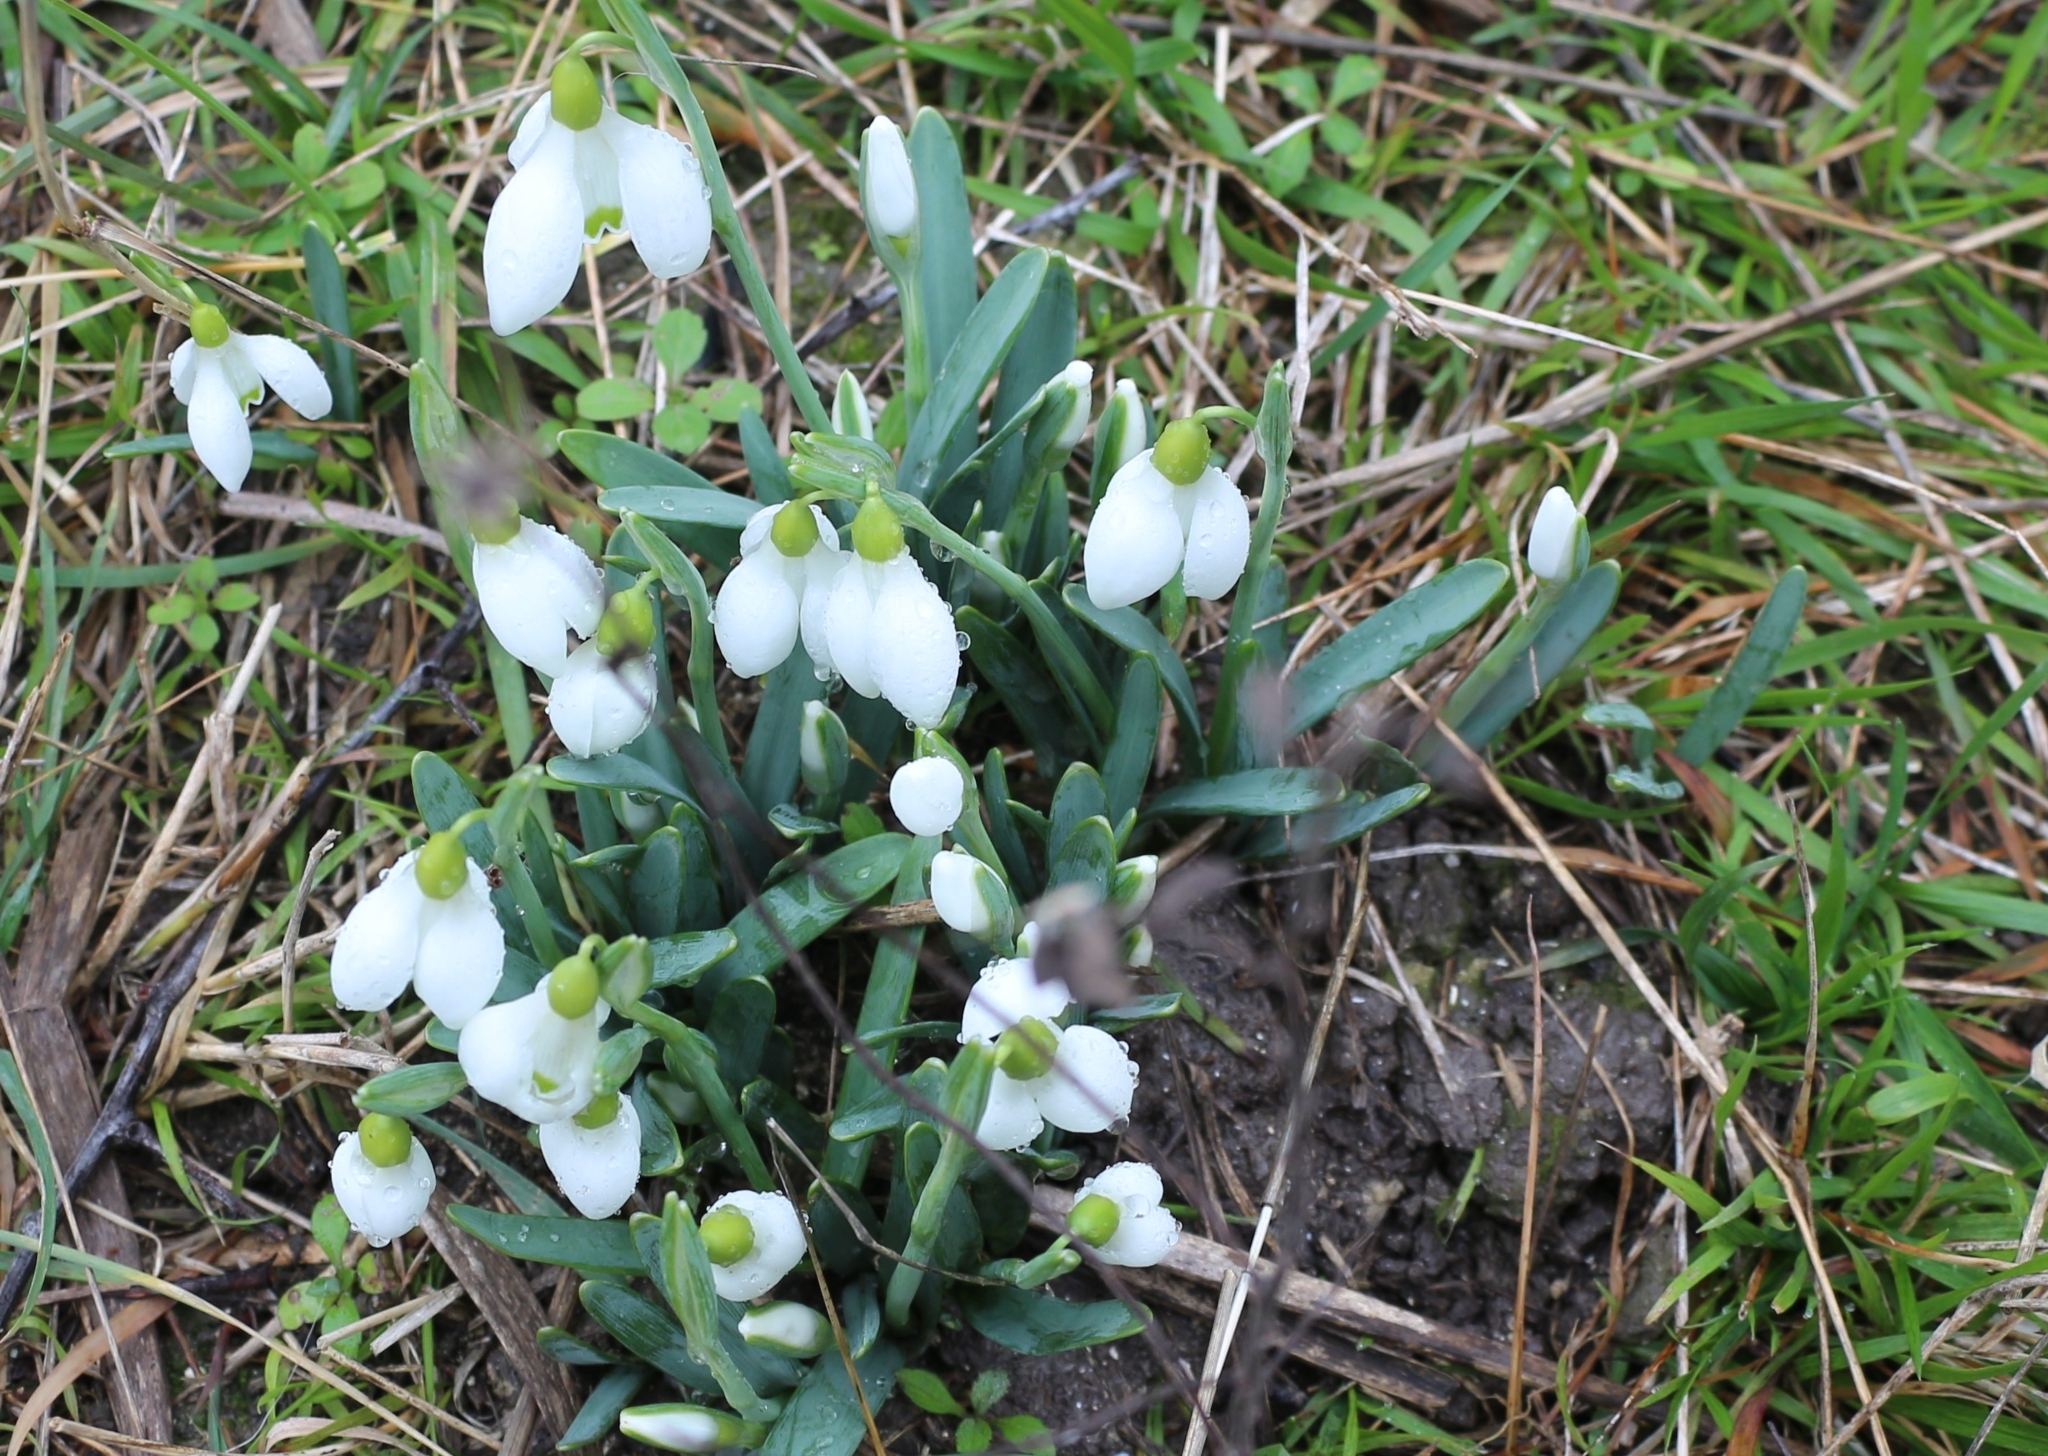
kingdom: Plantae
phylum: Tracheophyta
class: Liliopsida
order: Asparagales
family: Amaryllidaceae
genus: Galanthus
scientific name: Galanthus nivalis
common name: Snowdrop
